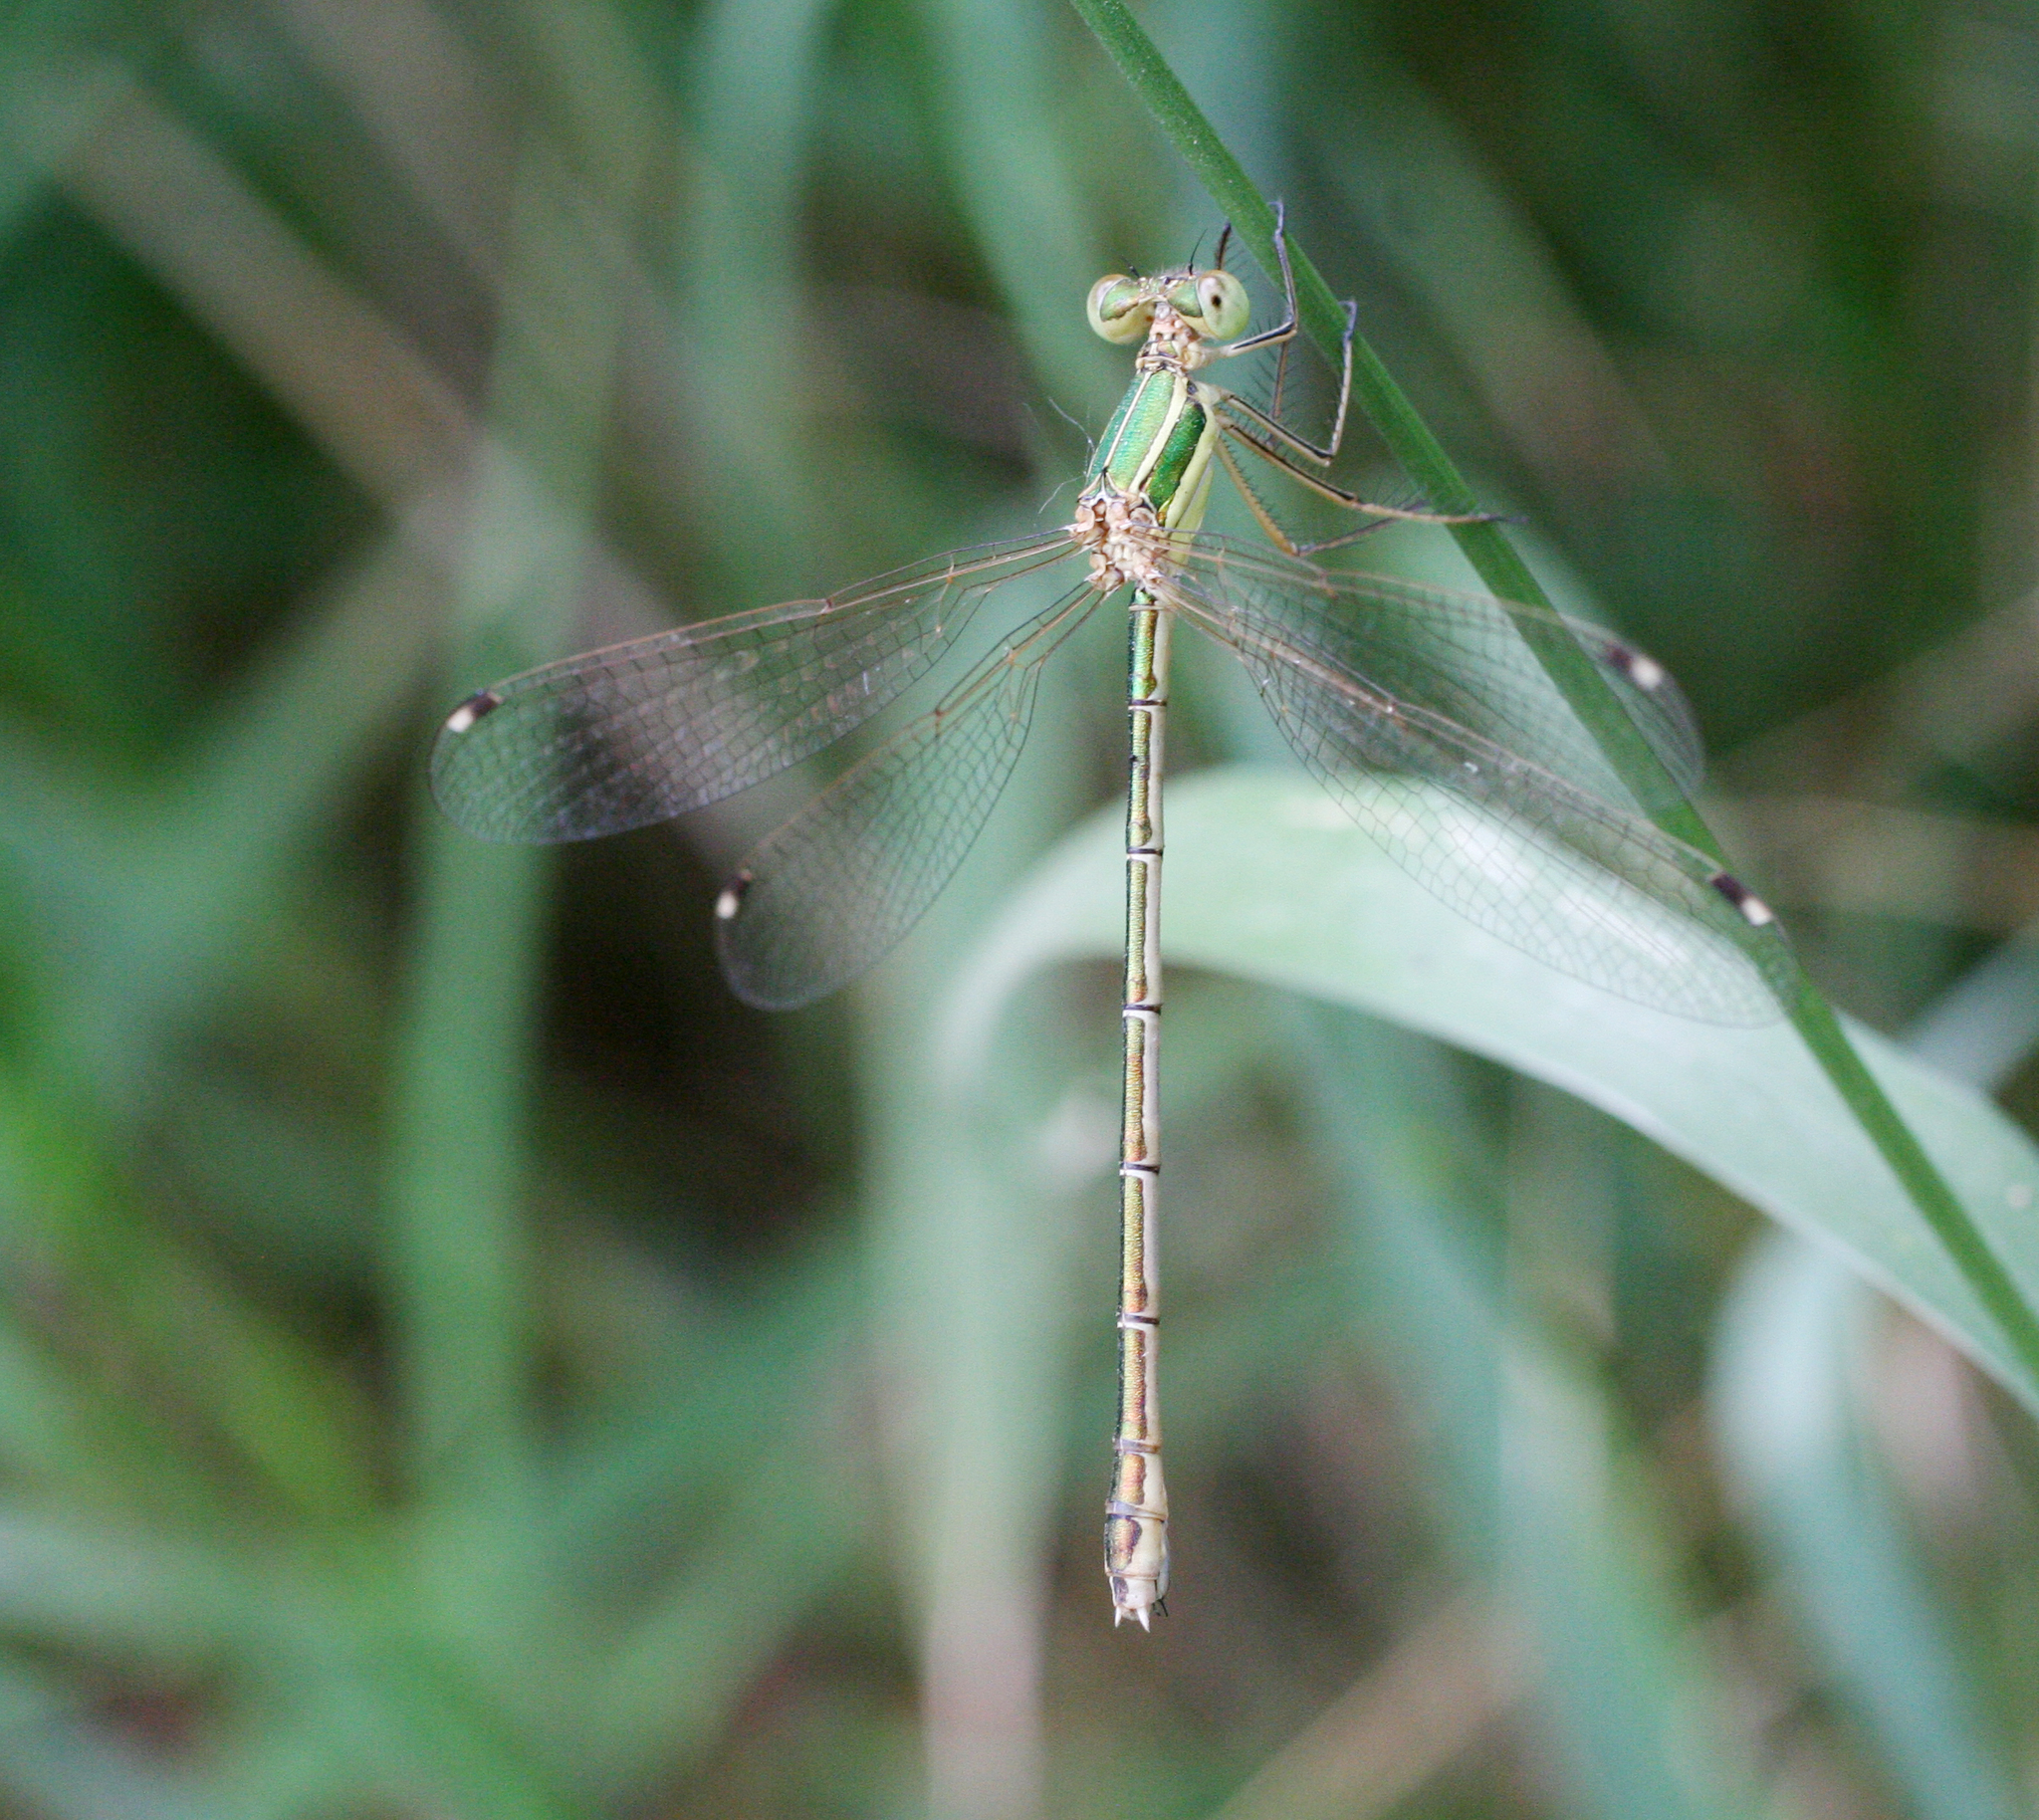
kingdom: Animalia
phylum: Arthropoda
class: Insecta
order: Odonata
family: Lestidae
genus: Lestes
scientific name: Lestes barbarus
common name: Migrant spreadwing
